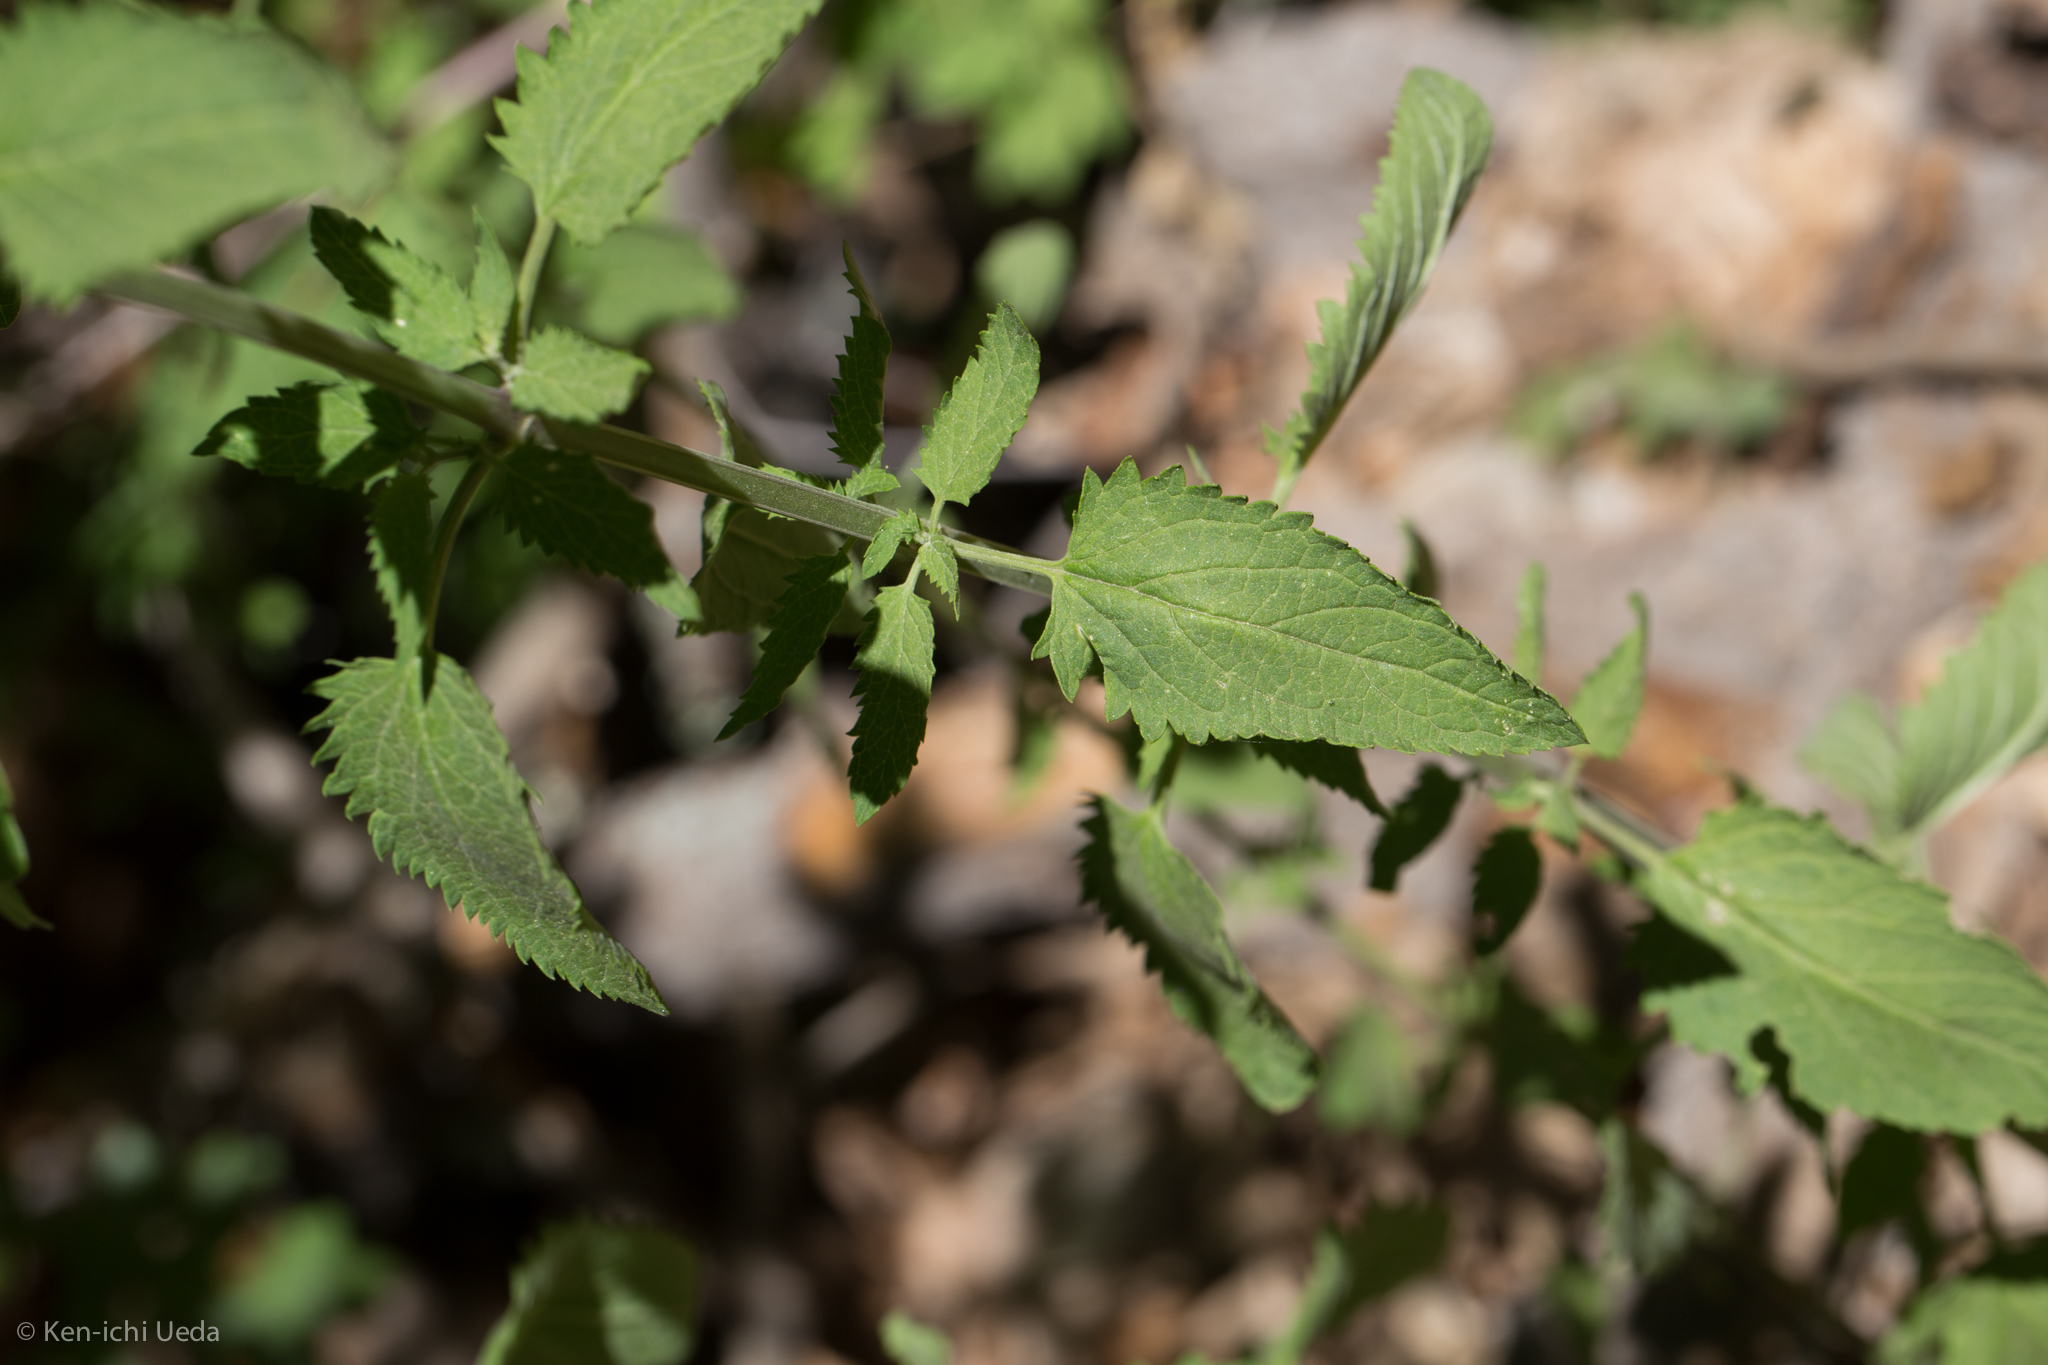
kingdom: Plantae
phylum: Tracheophyta
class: Magnoliopsida
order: Lamiales
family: Scrophulariaceae
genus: Scrophularia
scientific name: Scrophularia parviflora
